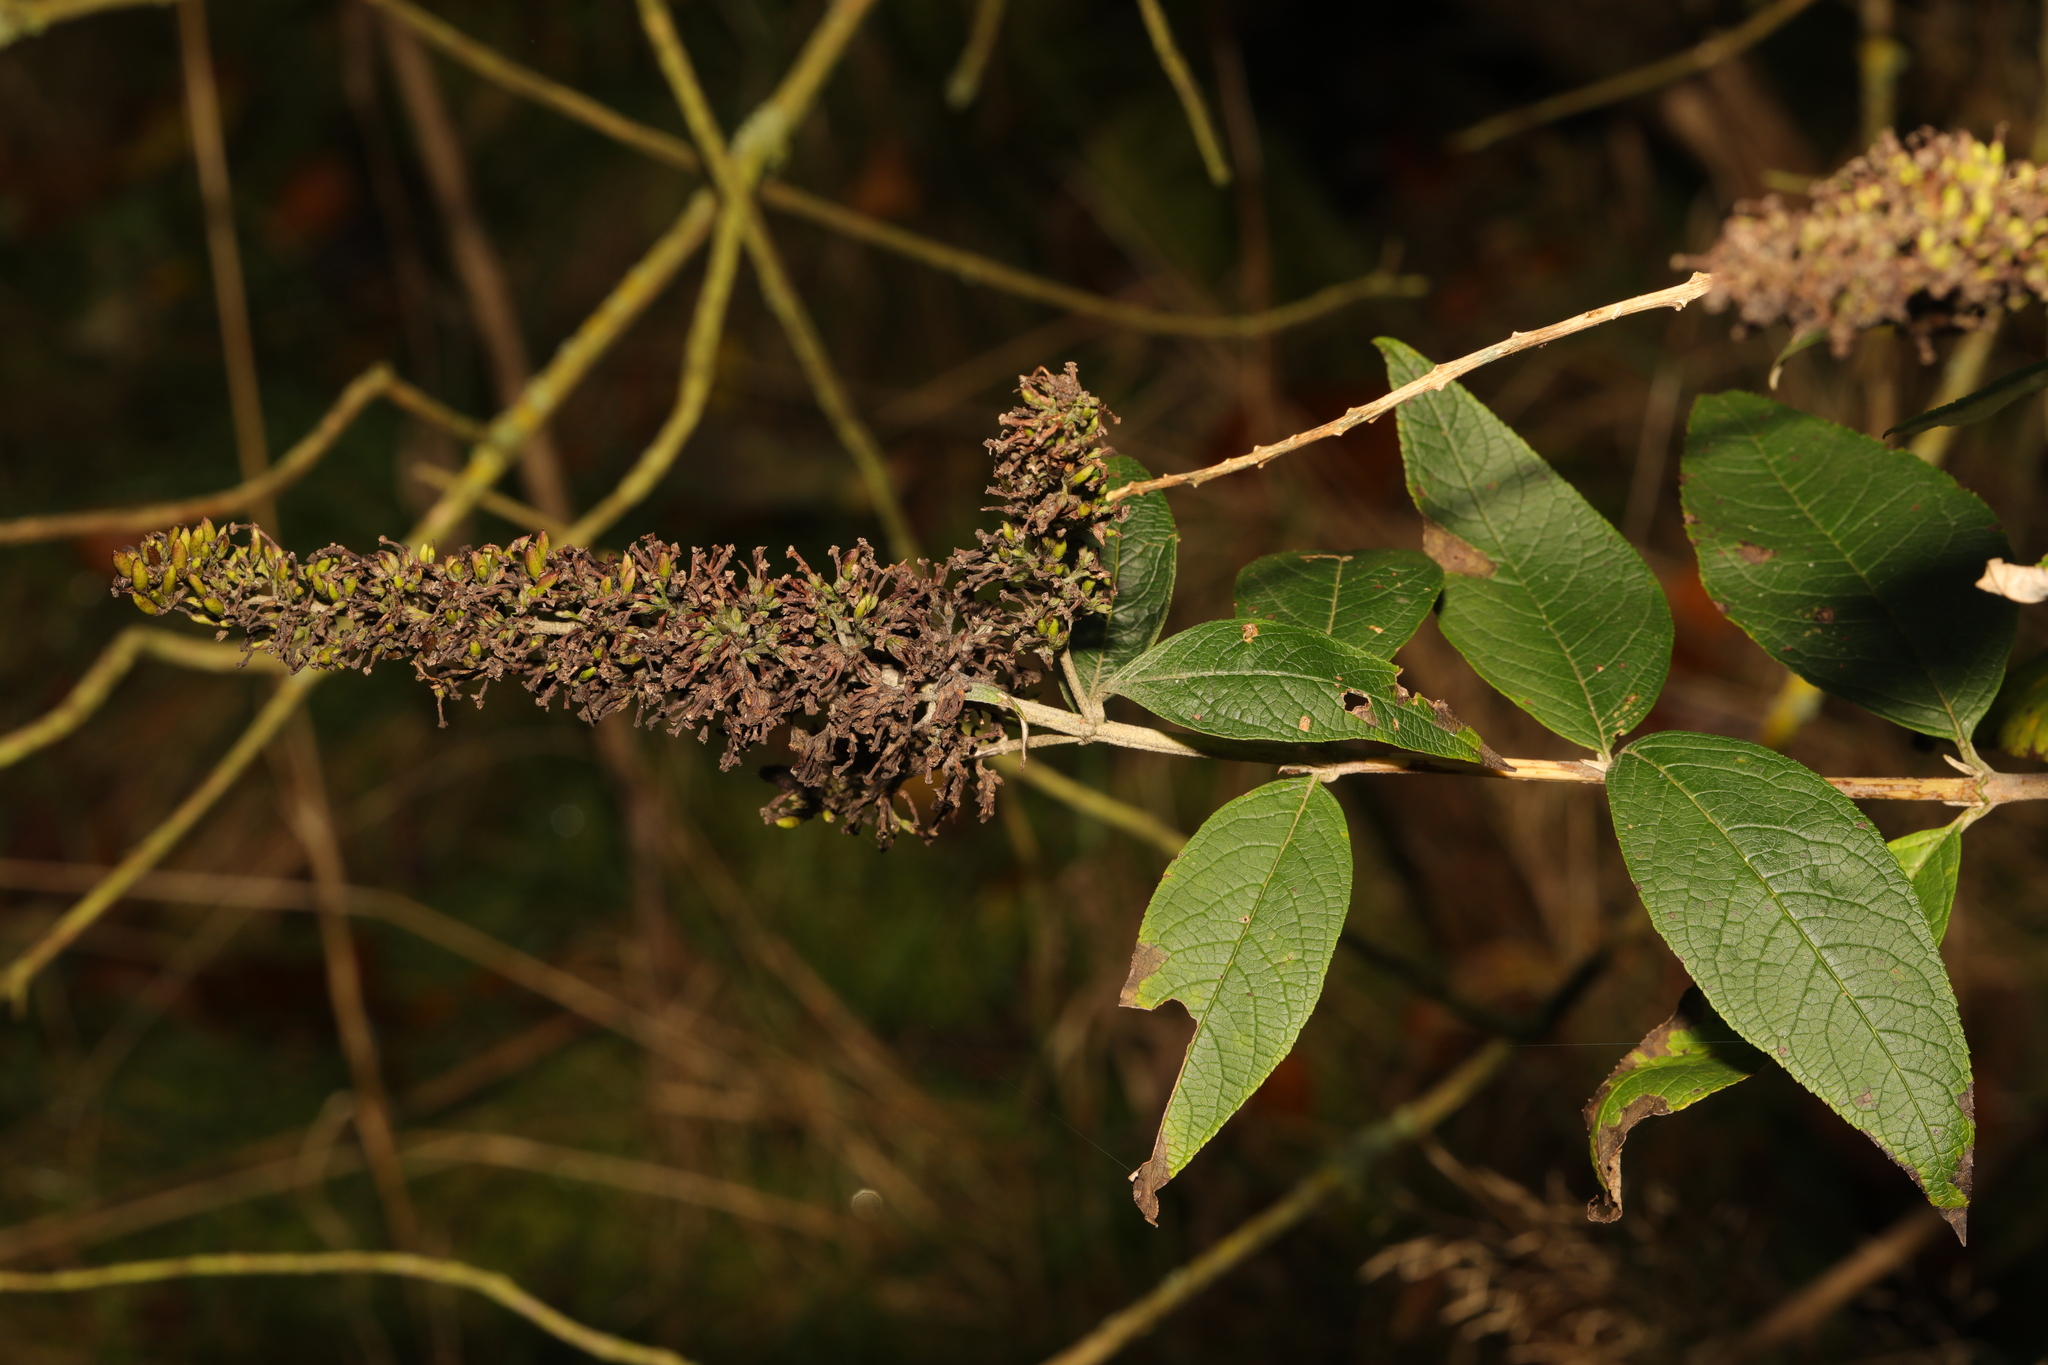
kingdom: Plantae
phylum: Tracheophyta
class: Magnoliopsida
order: Lamiales
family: Scrophulariaceae
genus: Buddleja
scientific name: Buddleja davidii
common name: Butterfly-bush
